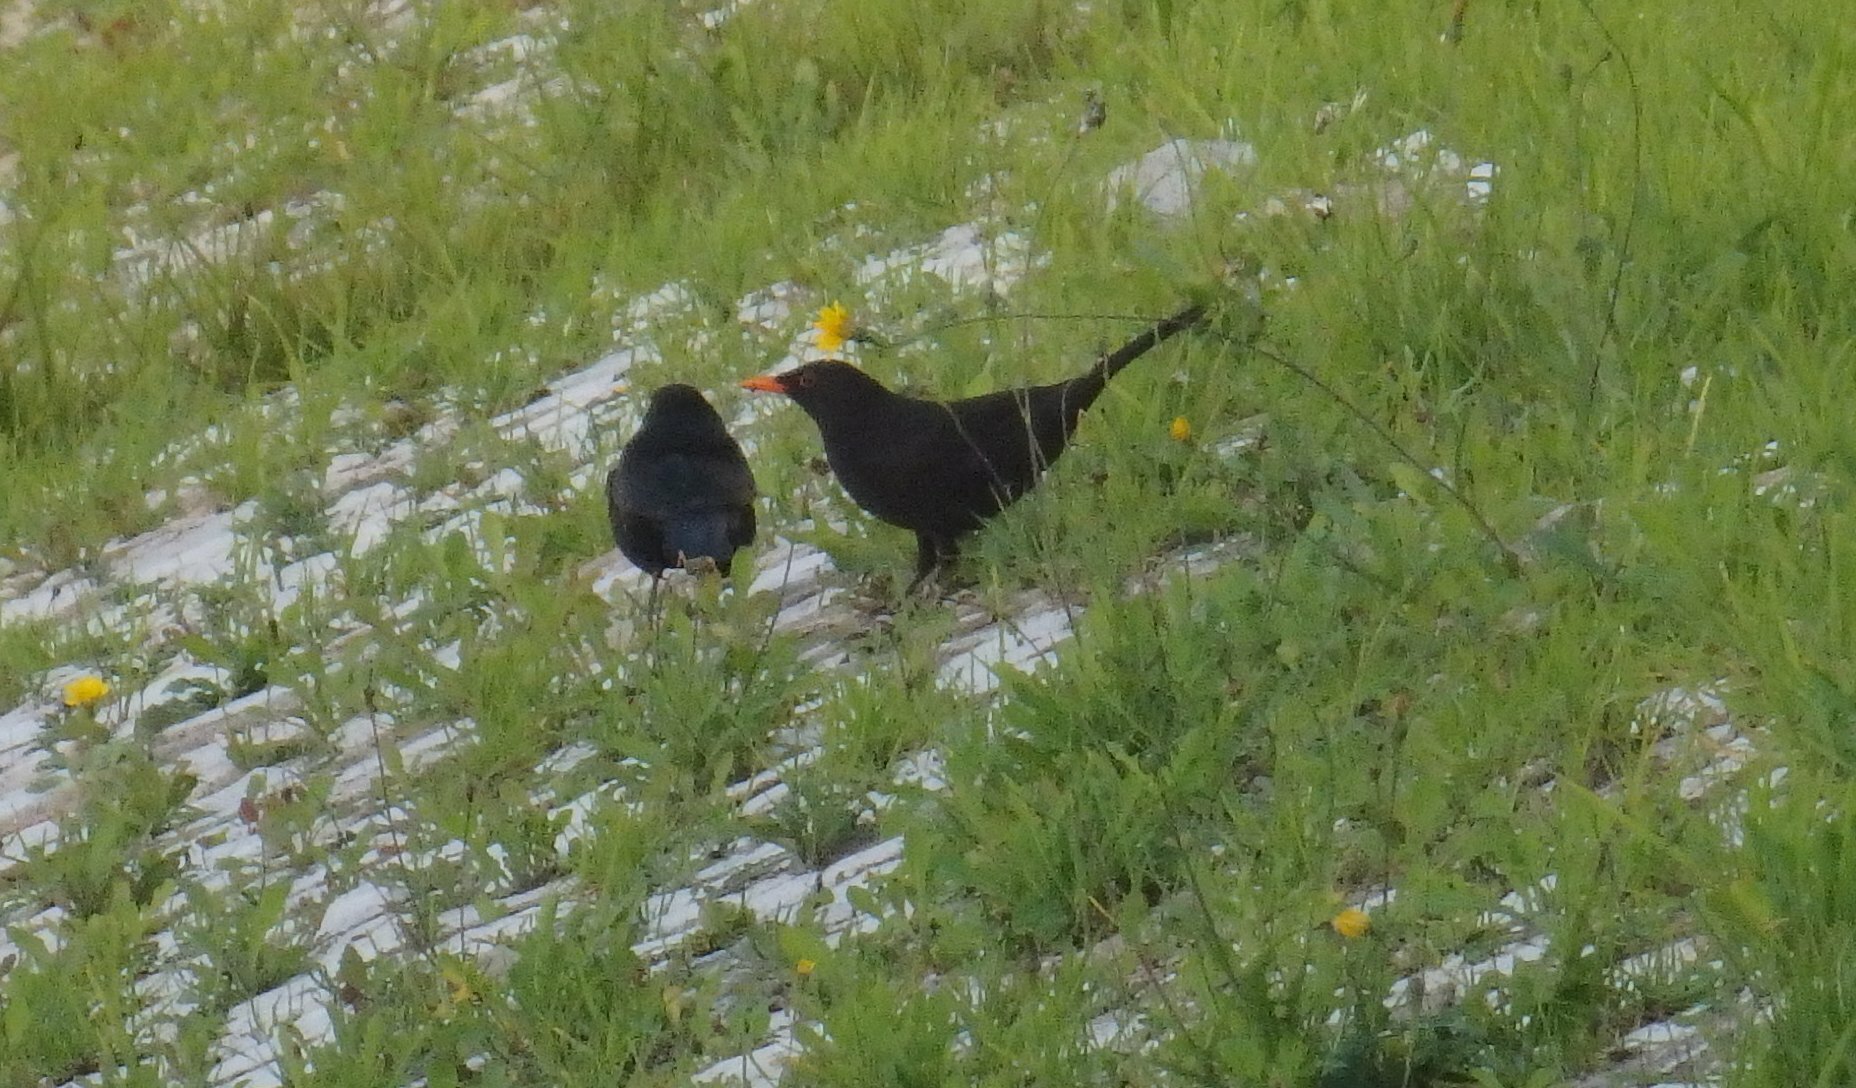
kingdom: Animalia
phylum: Chordata
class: Aves
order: Passeriformes
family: Turdidae
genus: Turdus
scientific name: Turdus merula
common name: Common blackbird
